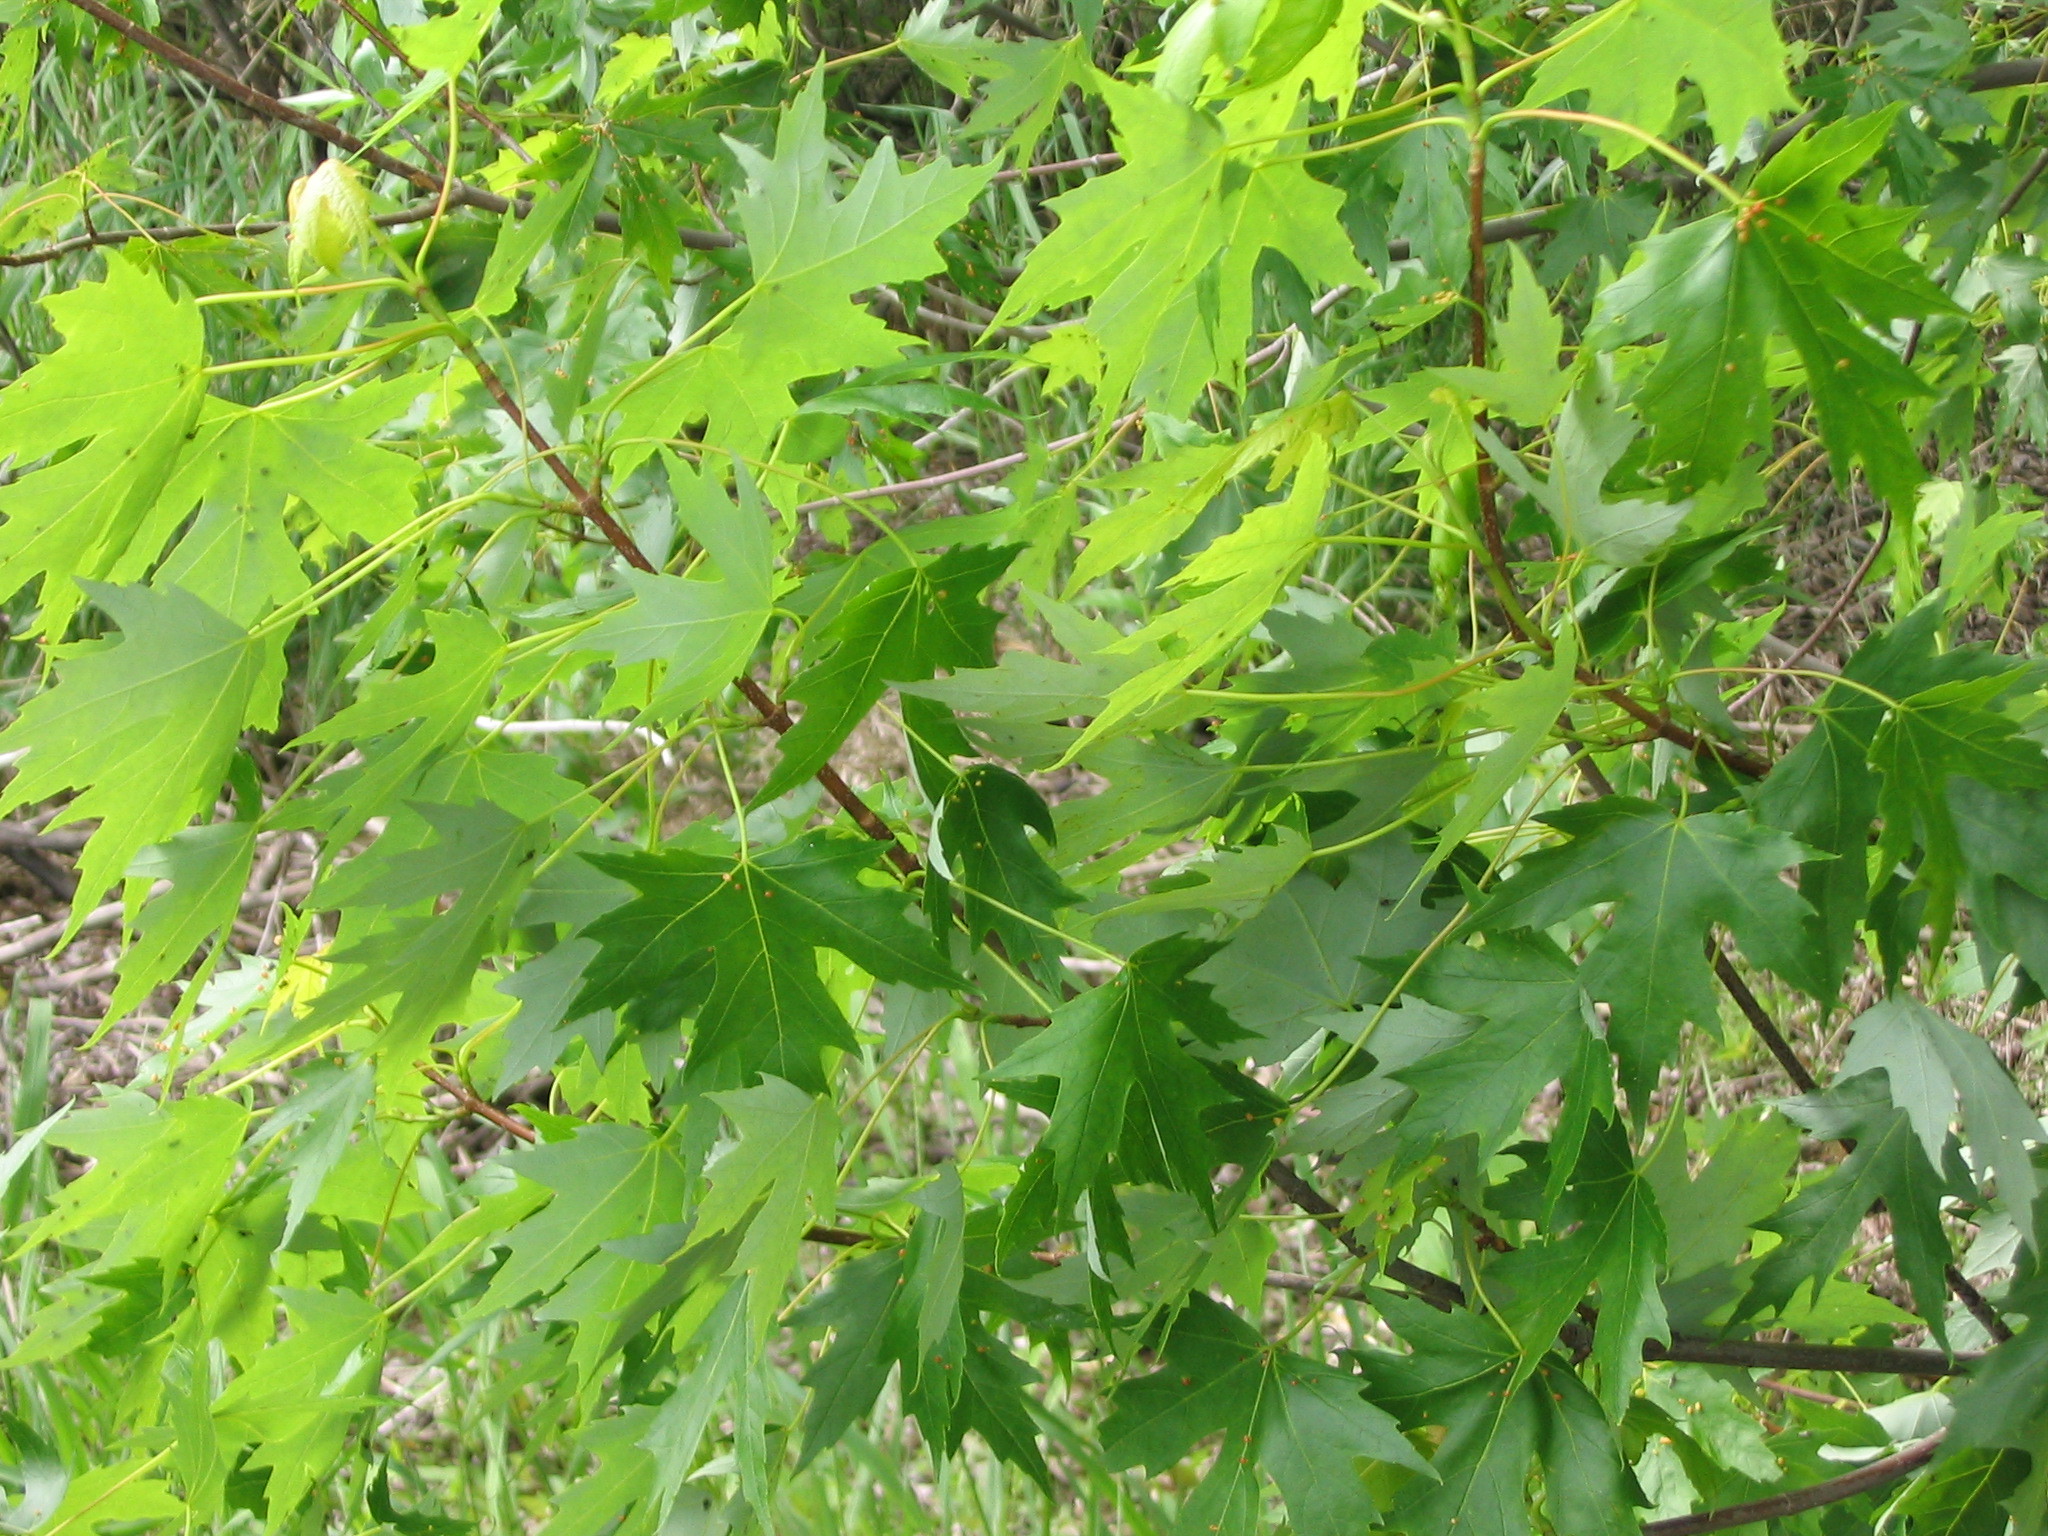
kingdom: Plantae
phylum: Tracheophyta
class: Magnoliopsida
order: Sapindales
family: Sapindaceae
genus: Acer
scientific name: Acer saccharinum
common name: Silver maple
